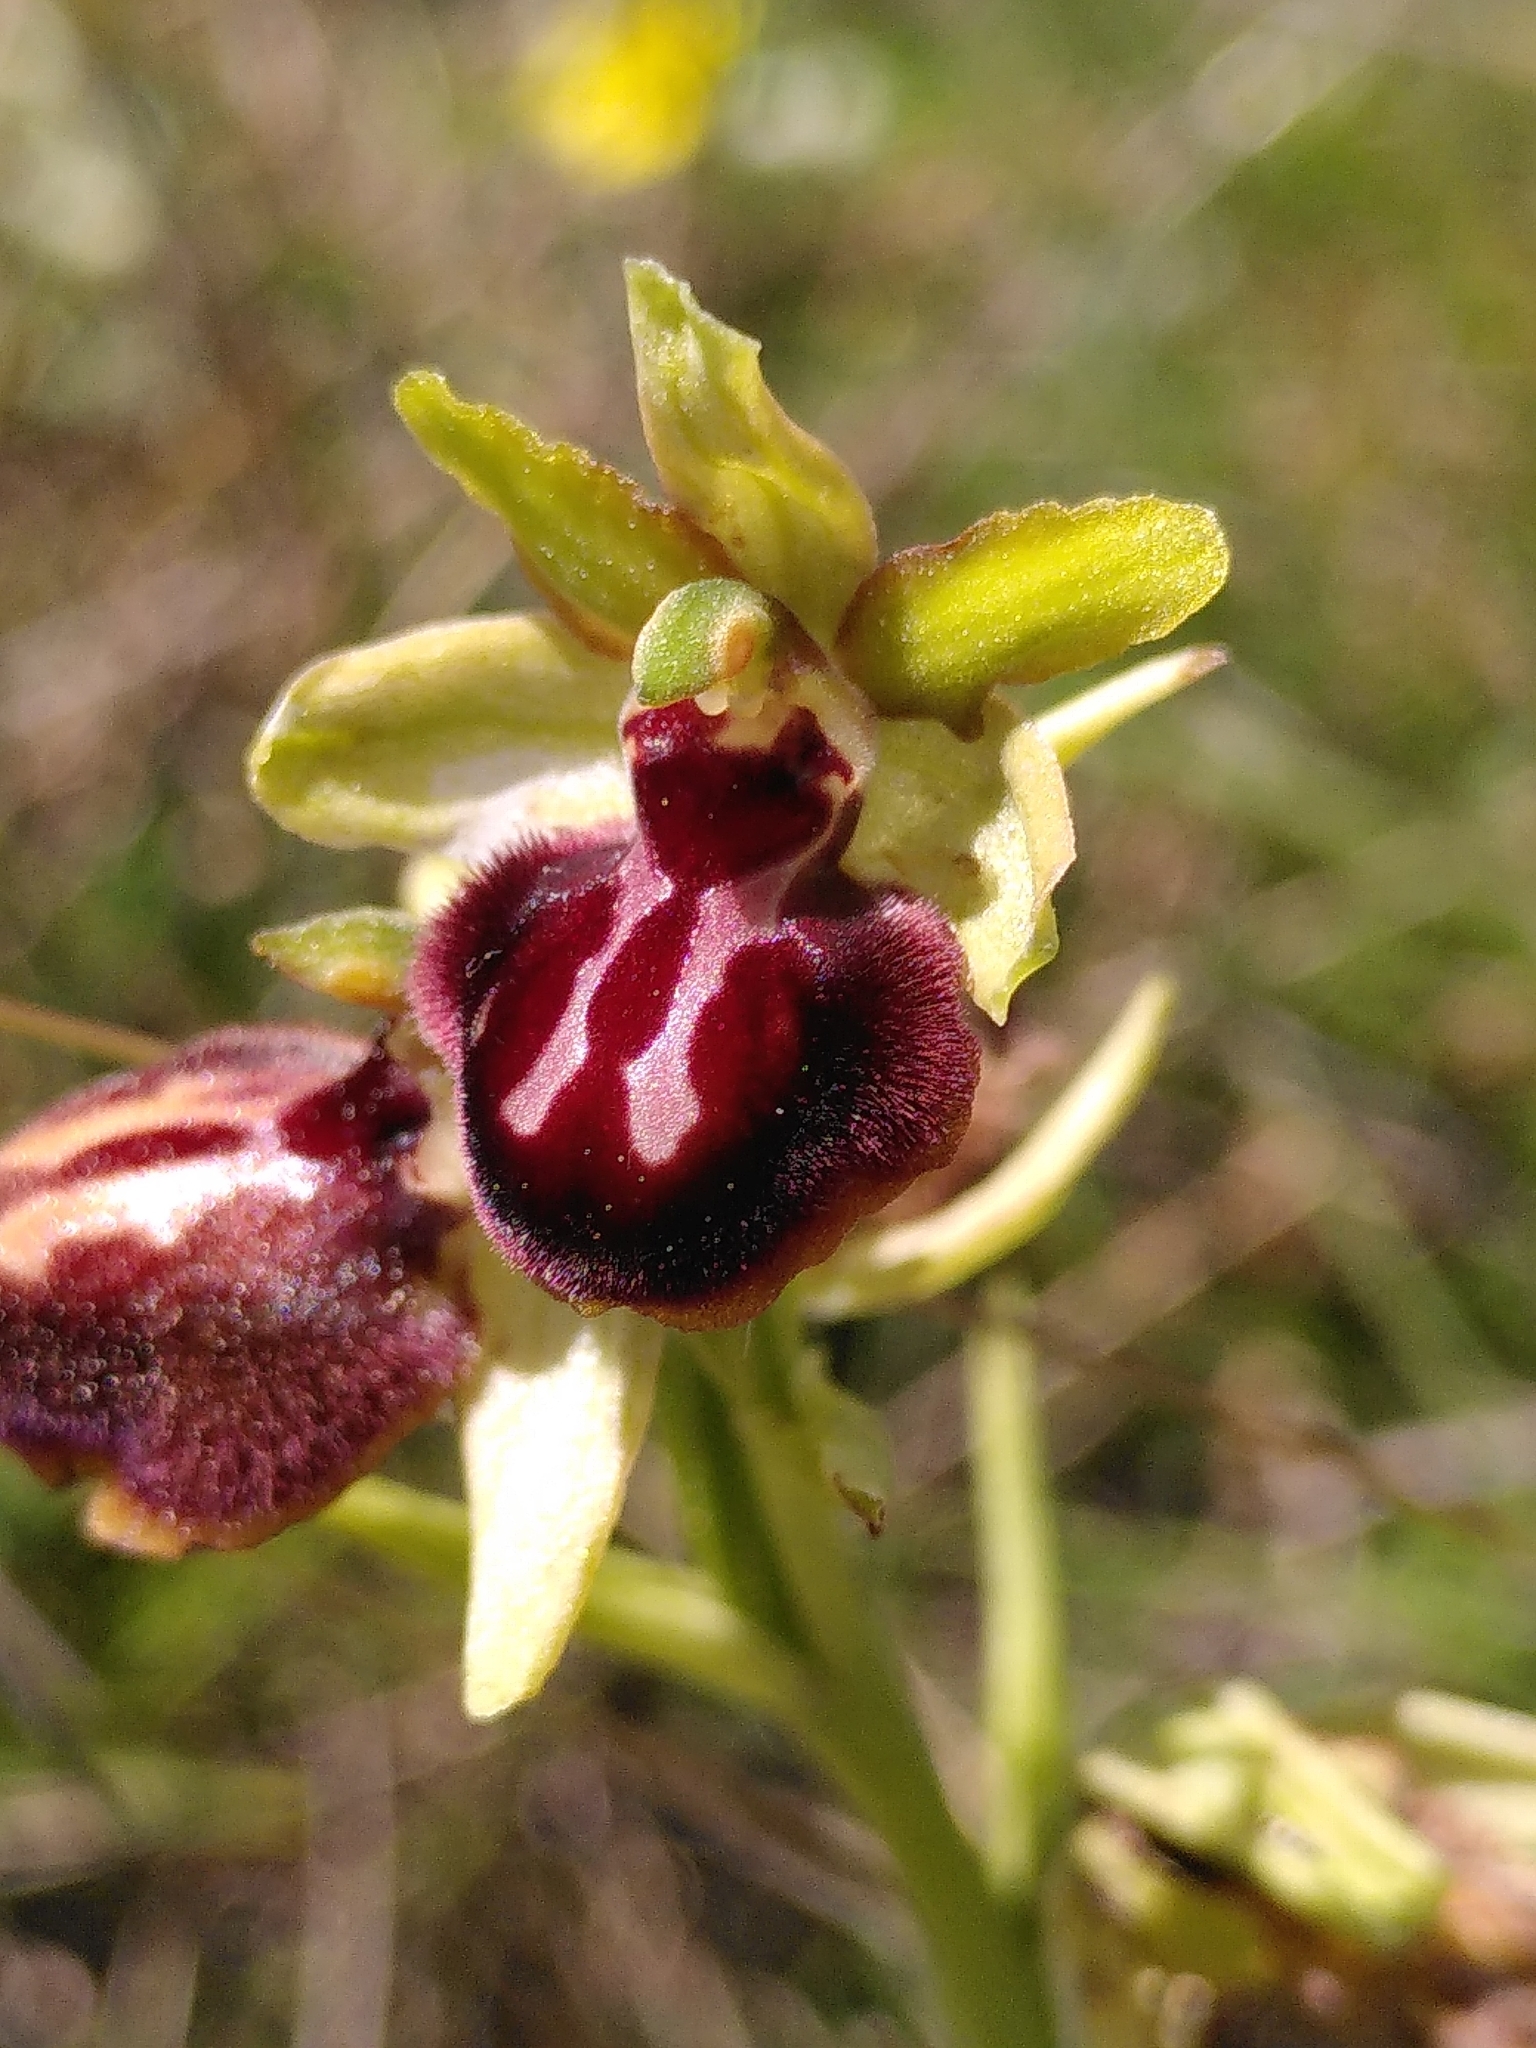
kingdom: Plantae
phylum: Tracheophyta
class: Liliopsida
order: Asparagales
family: Orchidaceae
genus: Ophrys
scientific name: Ophrys sphegodes
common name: Early spider-orchid
